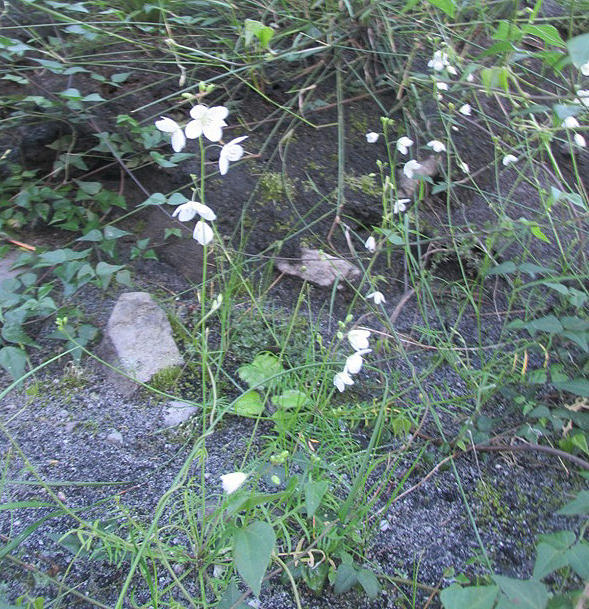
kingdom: Plantae
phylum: Tracheophyta
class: Magnoliopsida
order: Brassicales
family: Brassicaceae
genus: Heliophila
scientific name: Heliophila meyeri
